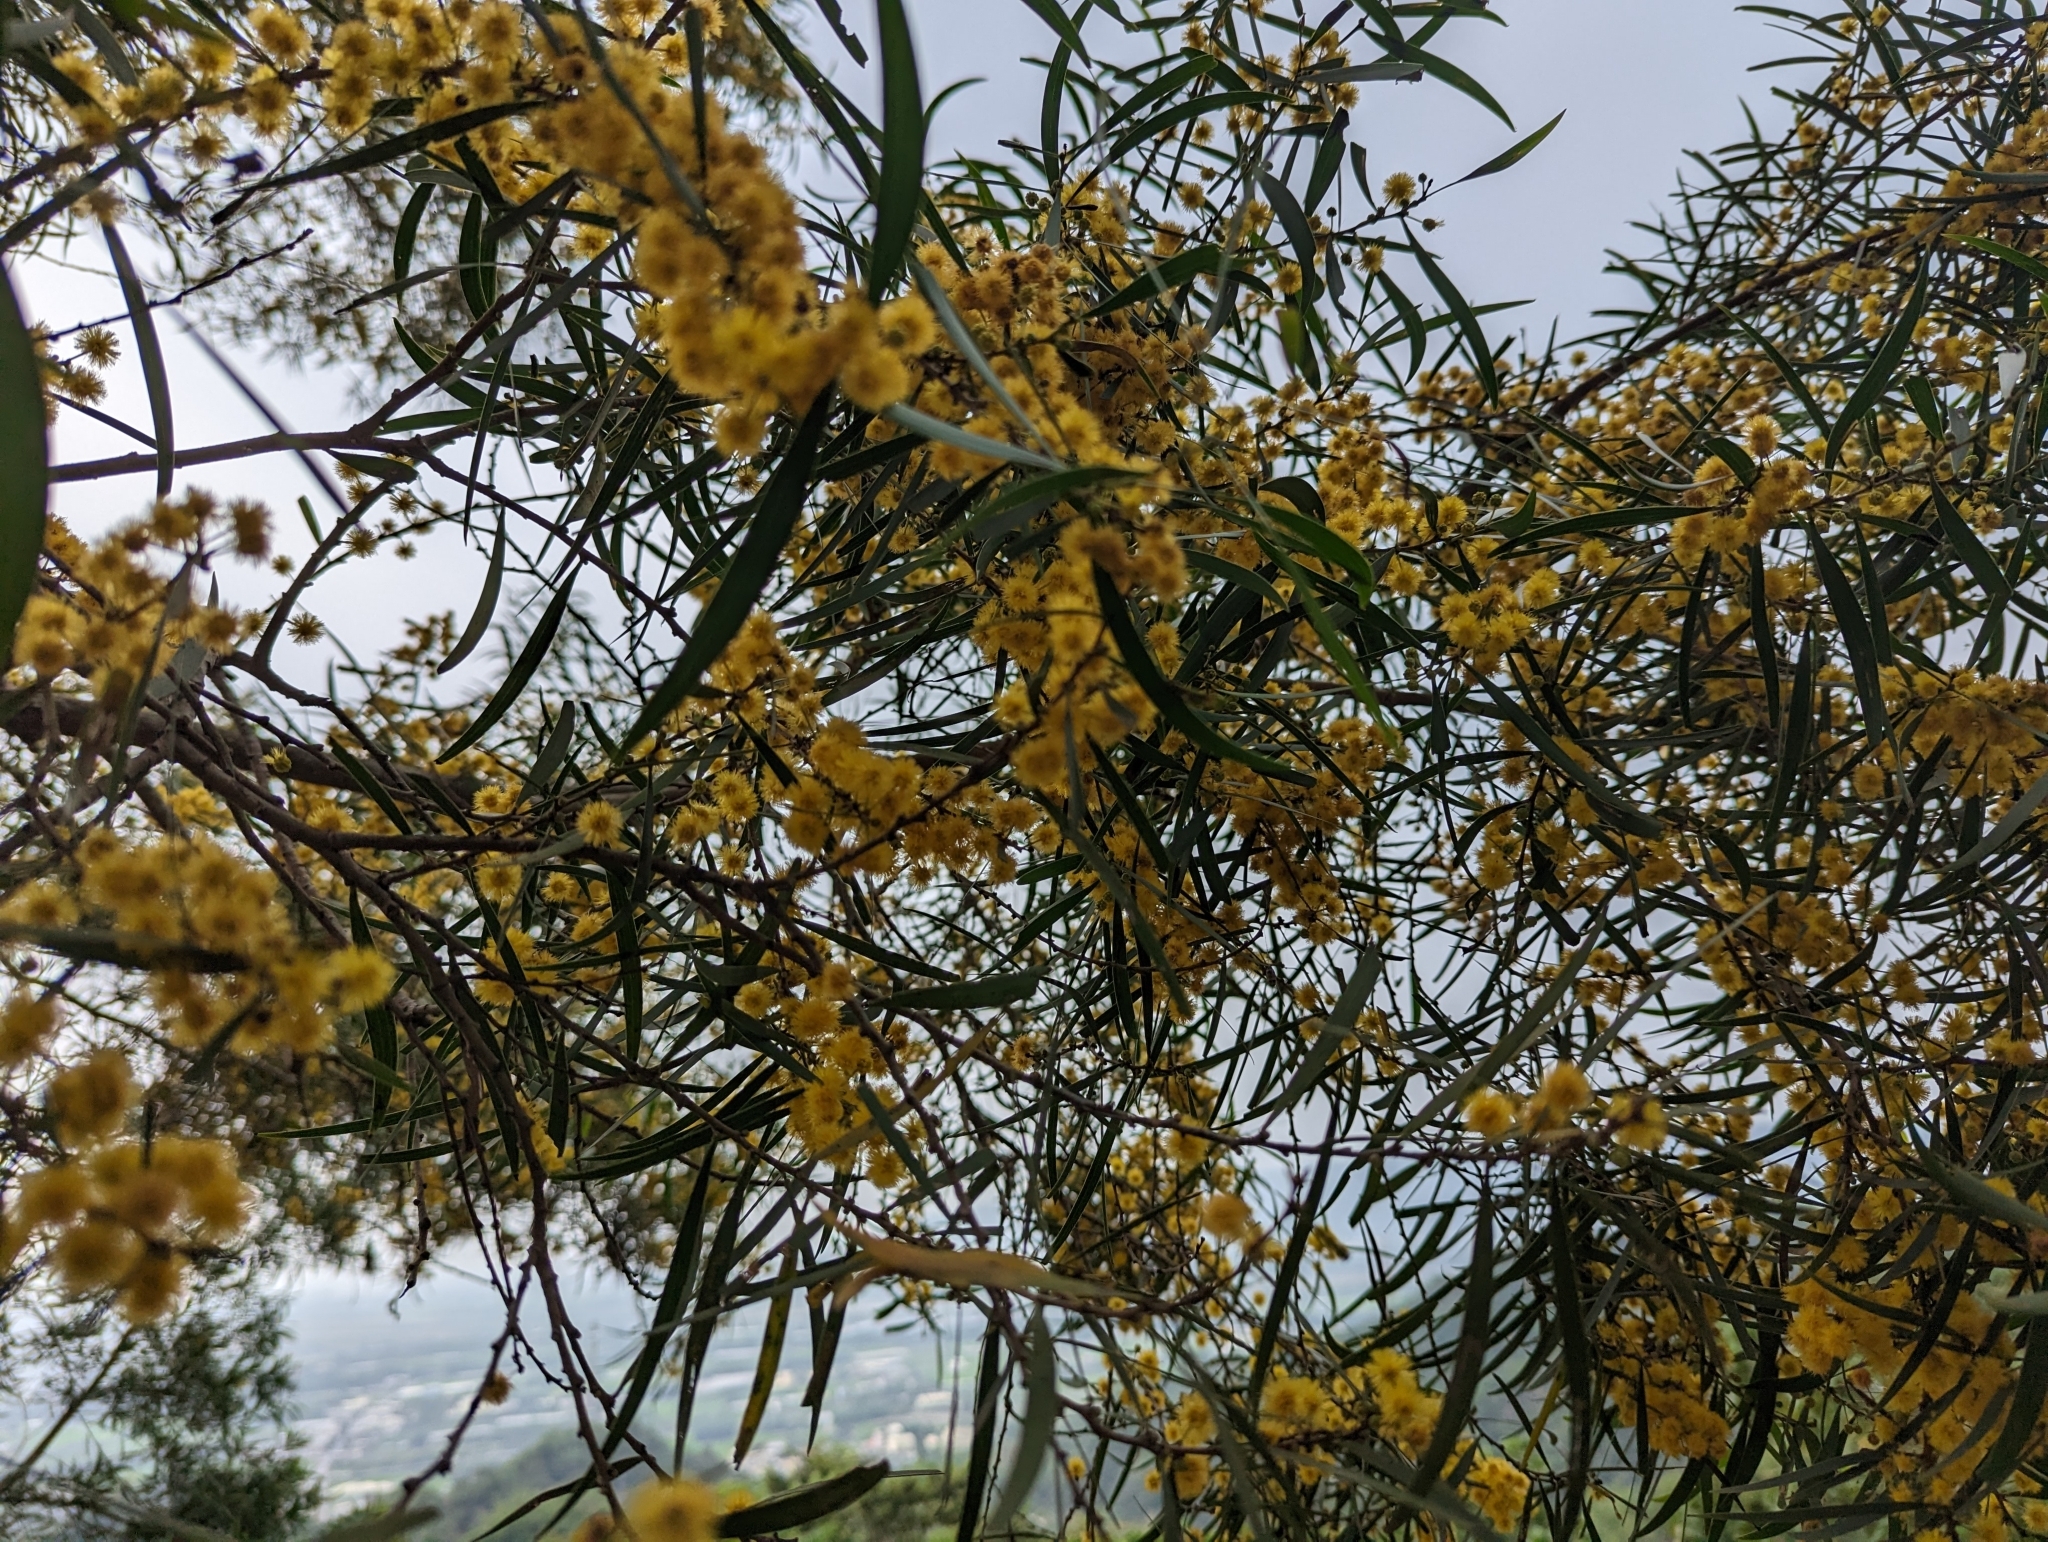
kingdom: Plantae
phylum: Tracheophyta
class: Magnoliopsida
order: Fabales
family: Fabaceae
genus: Acacia
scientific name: Acacia confusa
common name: Formosan koa
